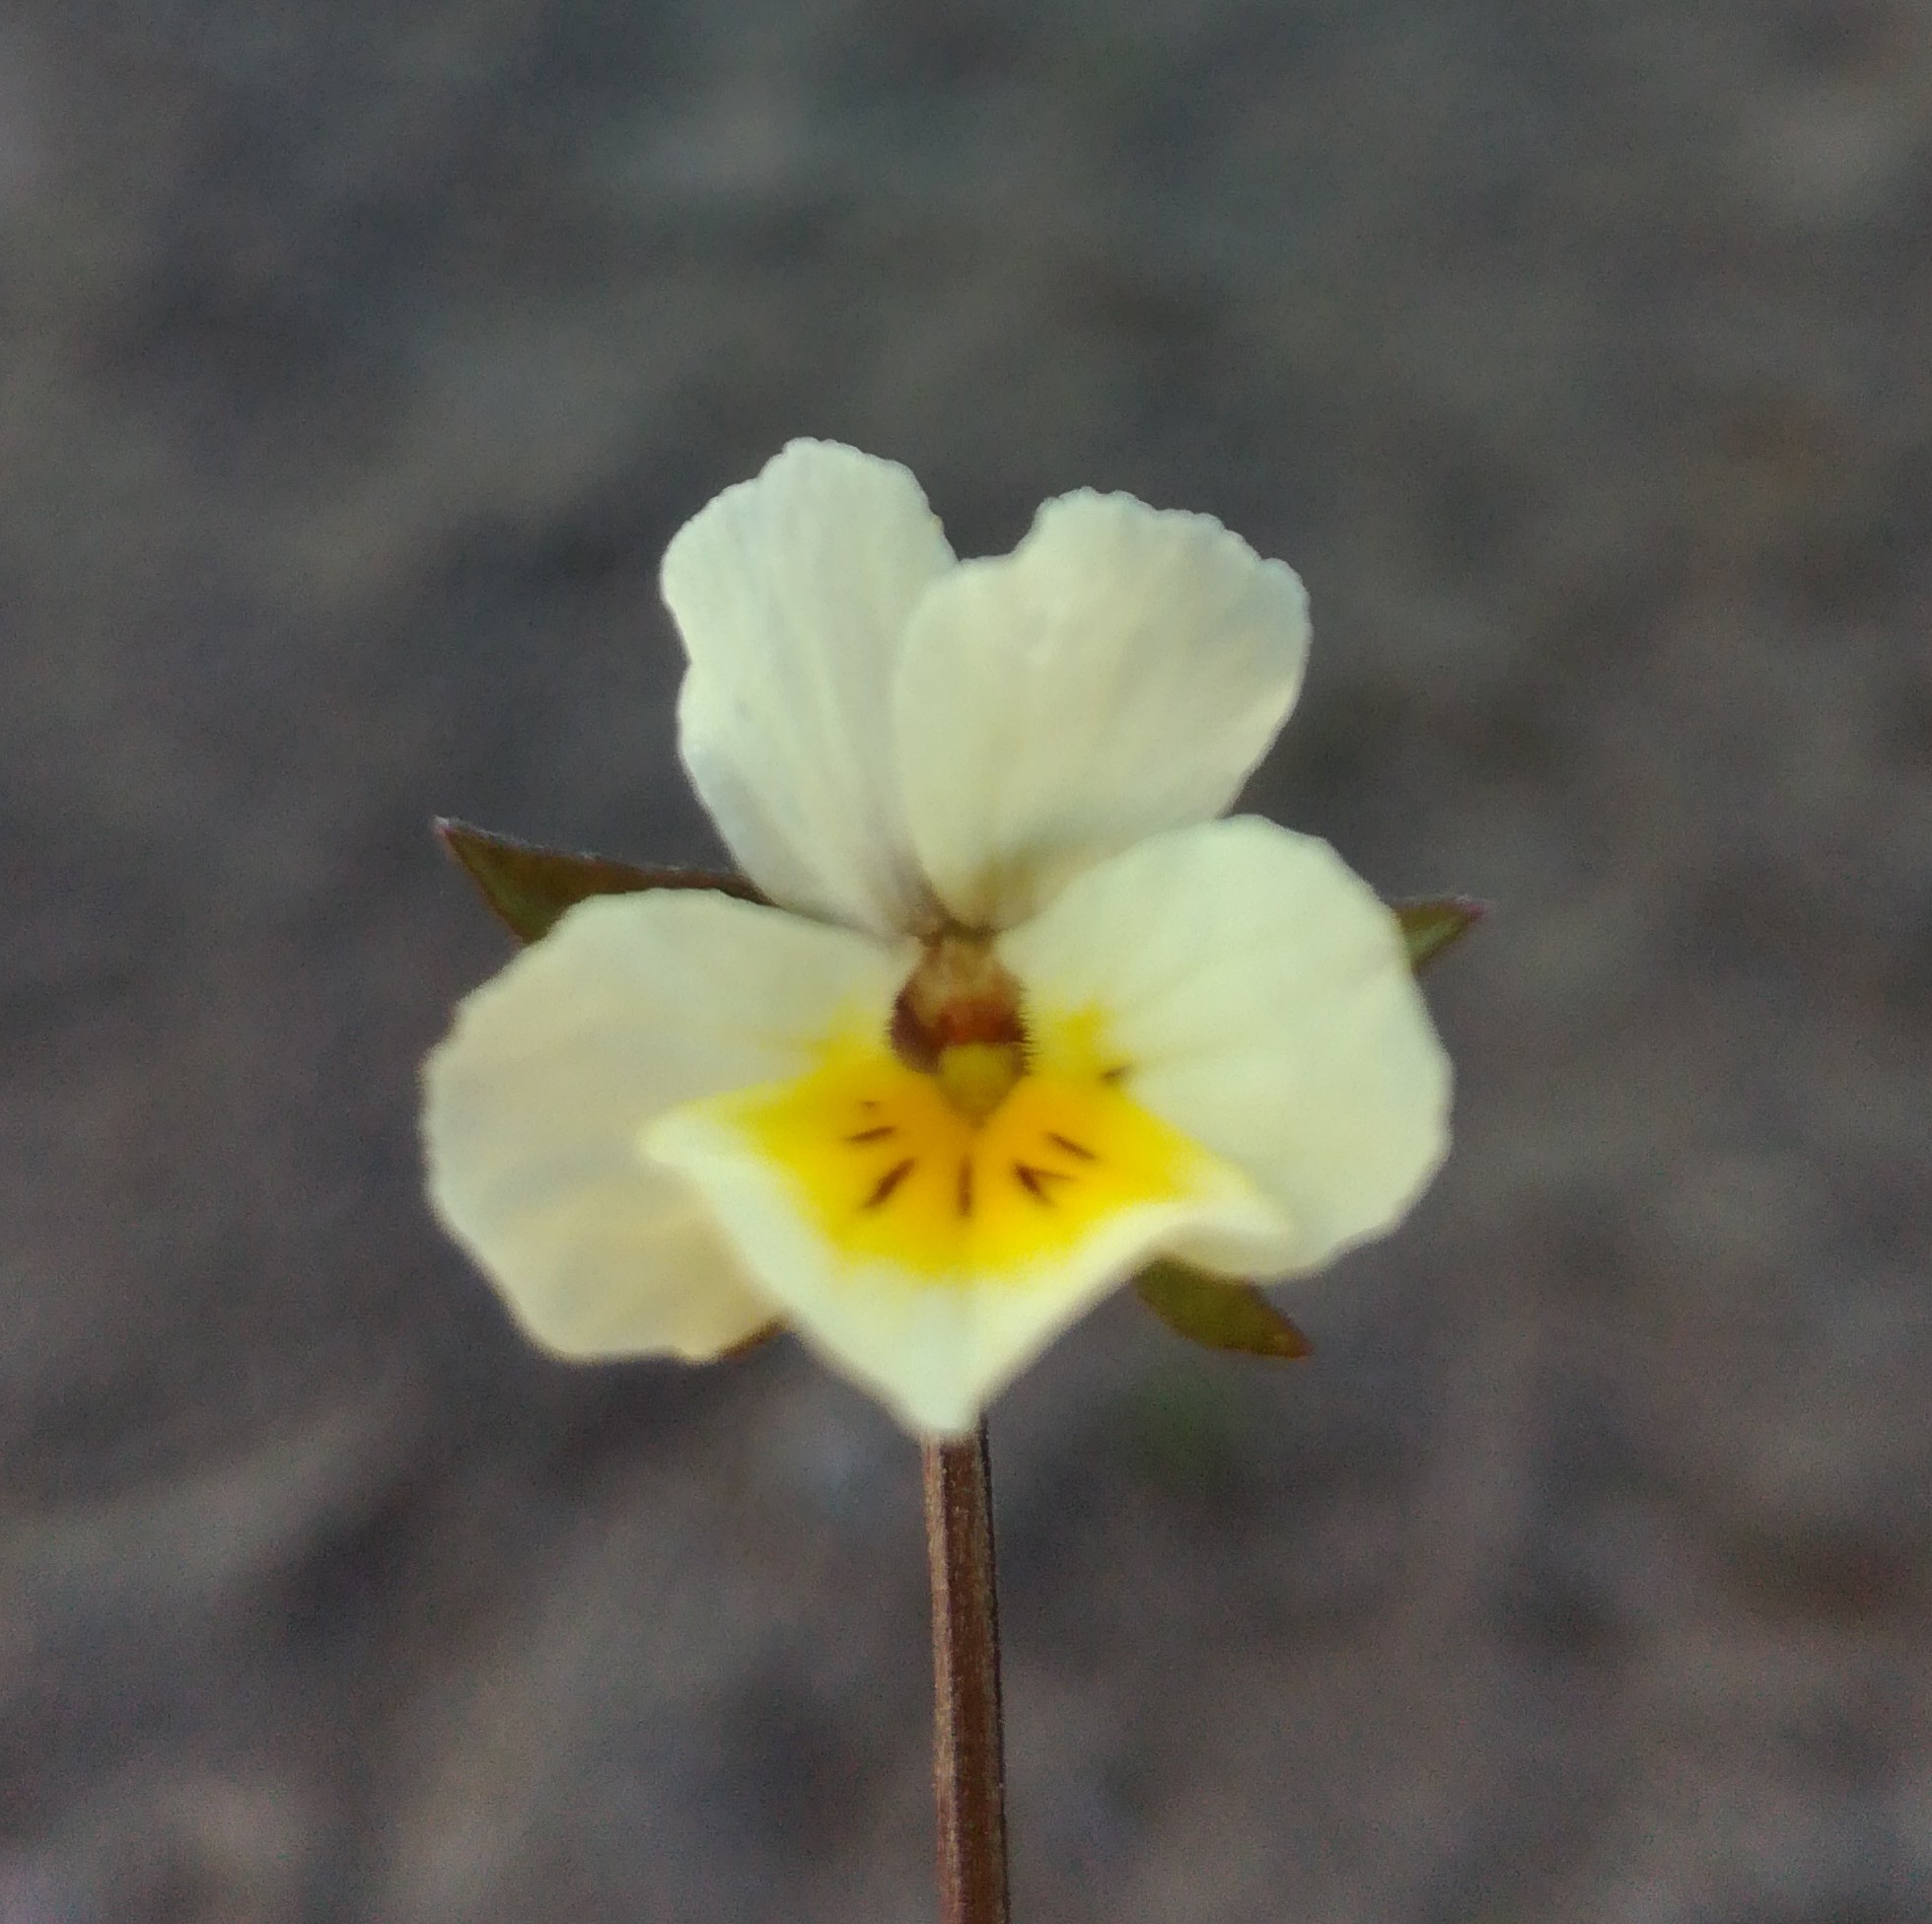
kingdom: Plantae
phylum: Tracheophyta
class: Magnoliopsida
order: Malpighiales
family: Violaceae
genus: Viola
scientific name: Viola arvensis
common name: Field pansy
